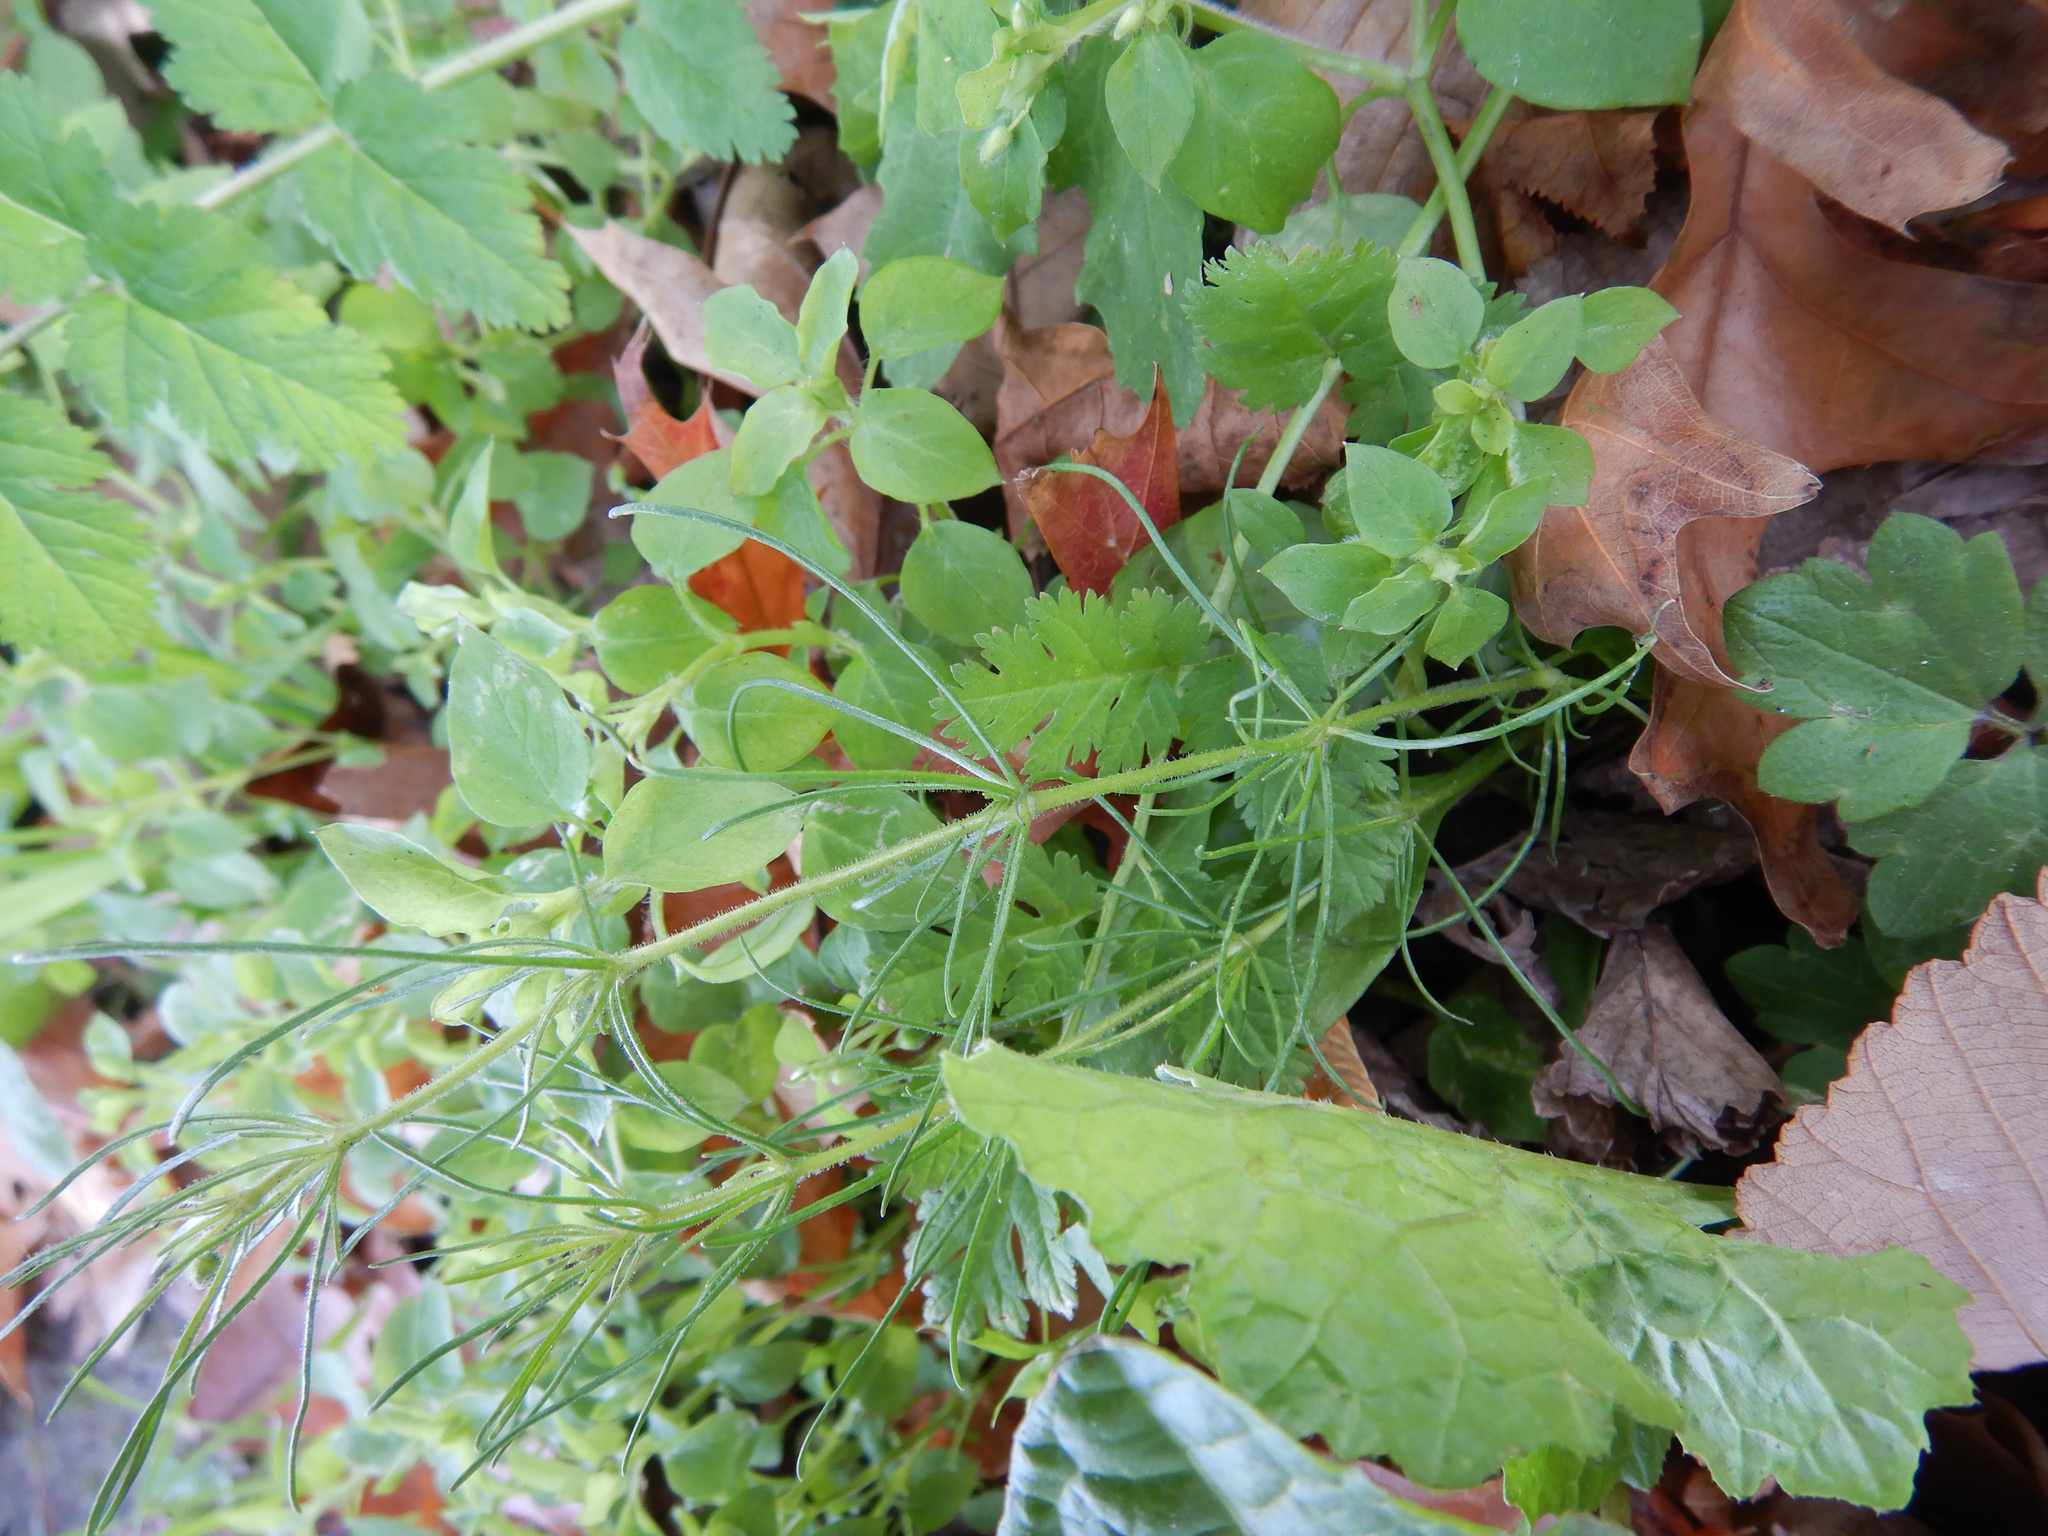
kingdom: Plantae
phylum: Tracheophyta
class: Magnoliopsida
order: Caryophyllales
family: Caryophyllaceae
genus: Spergula
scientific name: Spergula arvensis
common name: Corn spurrey
